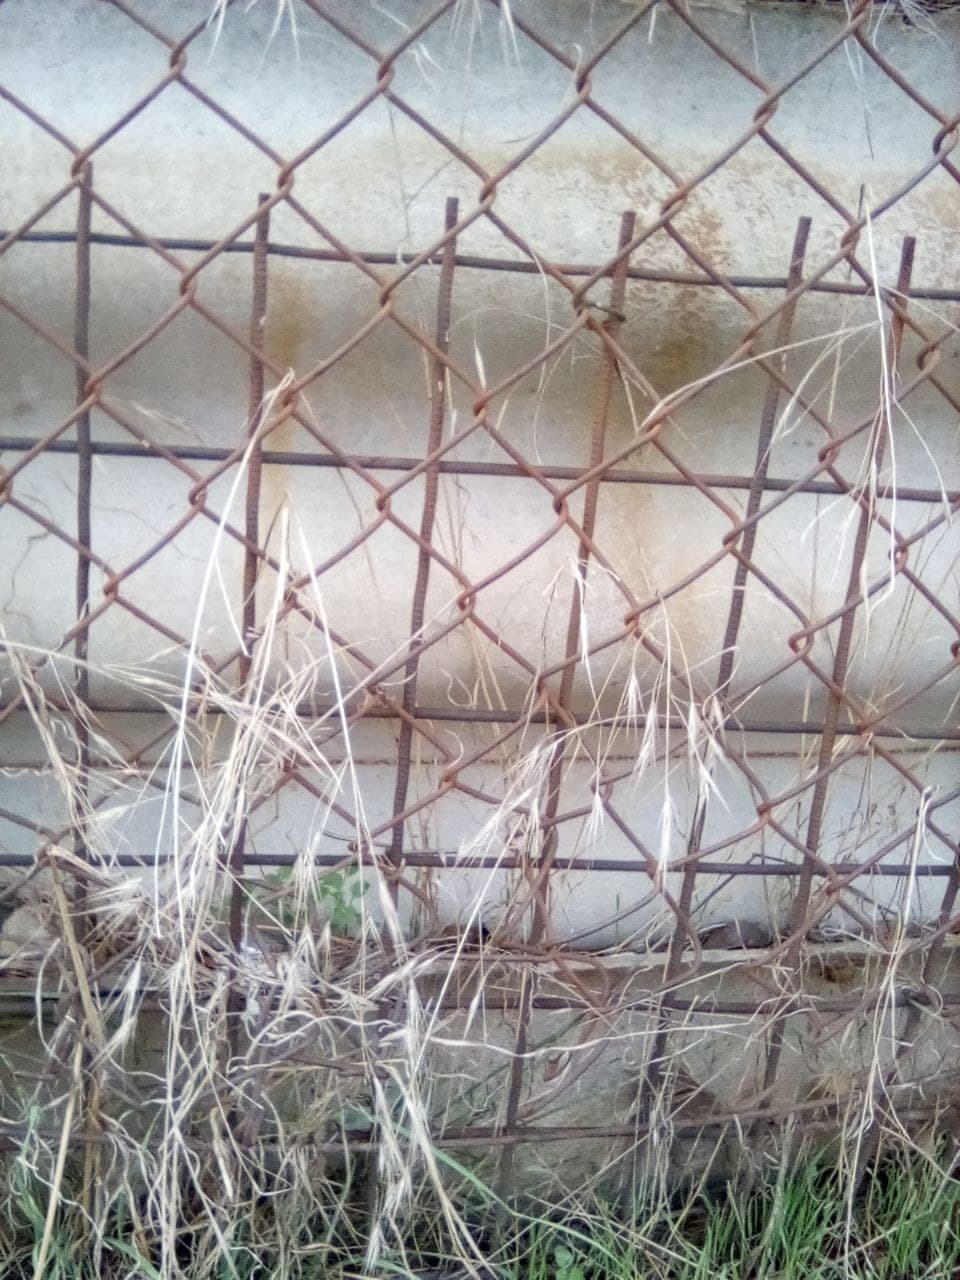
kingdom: Plantae
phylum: Tracheophyta
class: Liliopsida
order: Poales
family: Poaceae
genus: Bromus
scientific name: Bromus sterilis
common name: Poverty brome
